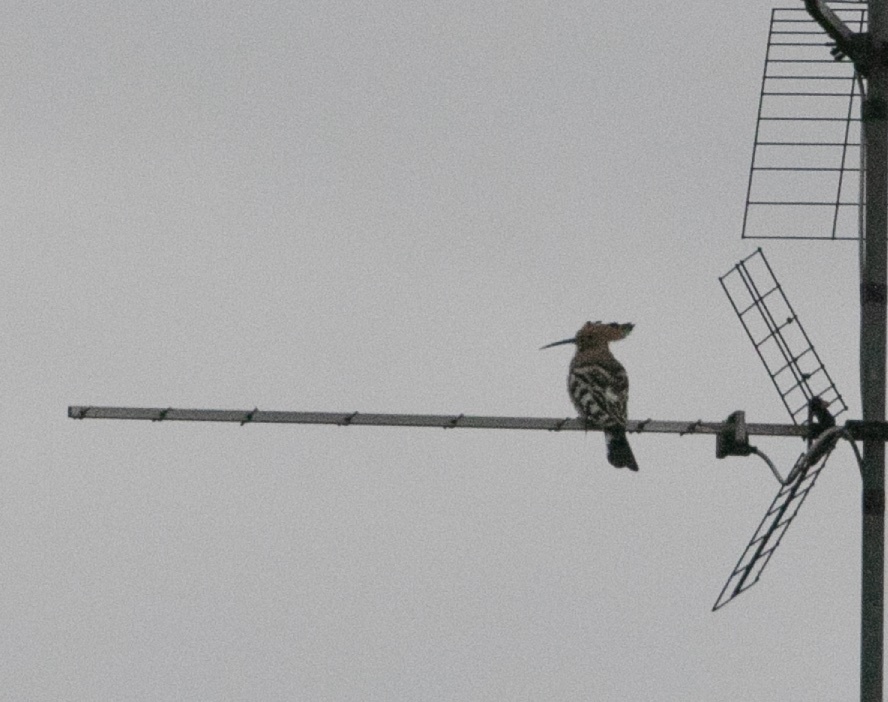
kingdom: Animalia
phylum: Chordata
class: Aves
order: Bucerotiformes
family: Upupidae
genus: Upupa
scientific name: Upupa epops
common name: Eurasian hoopoe
